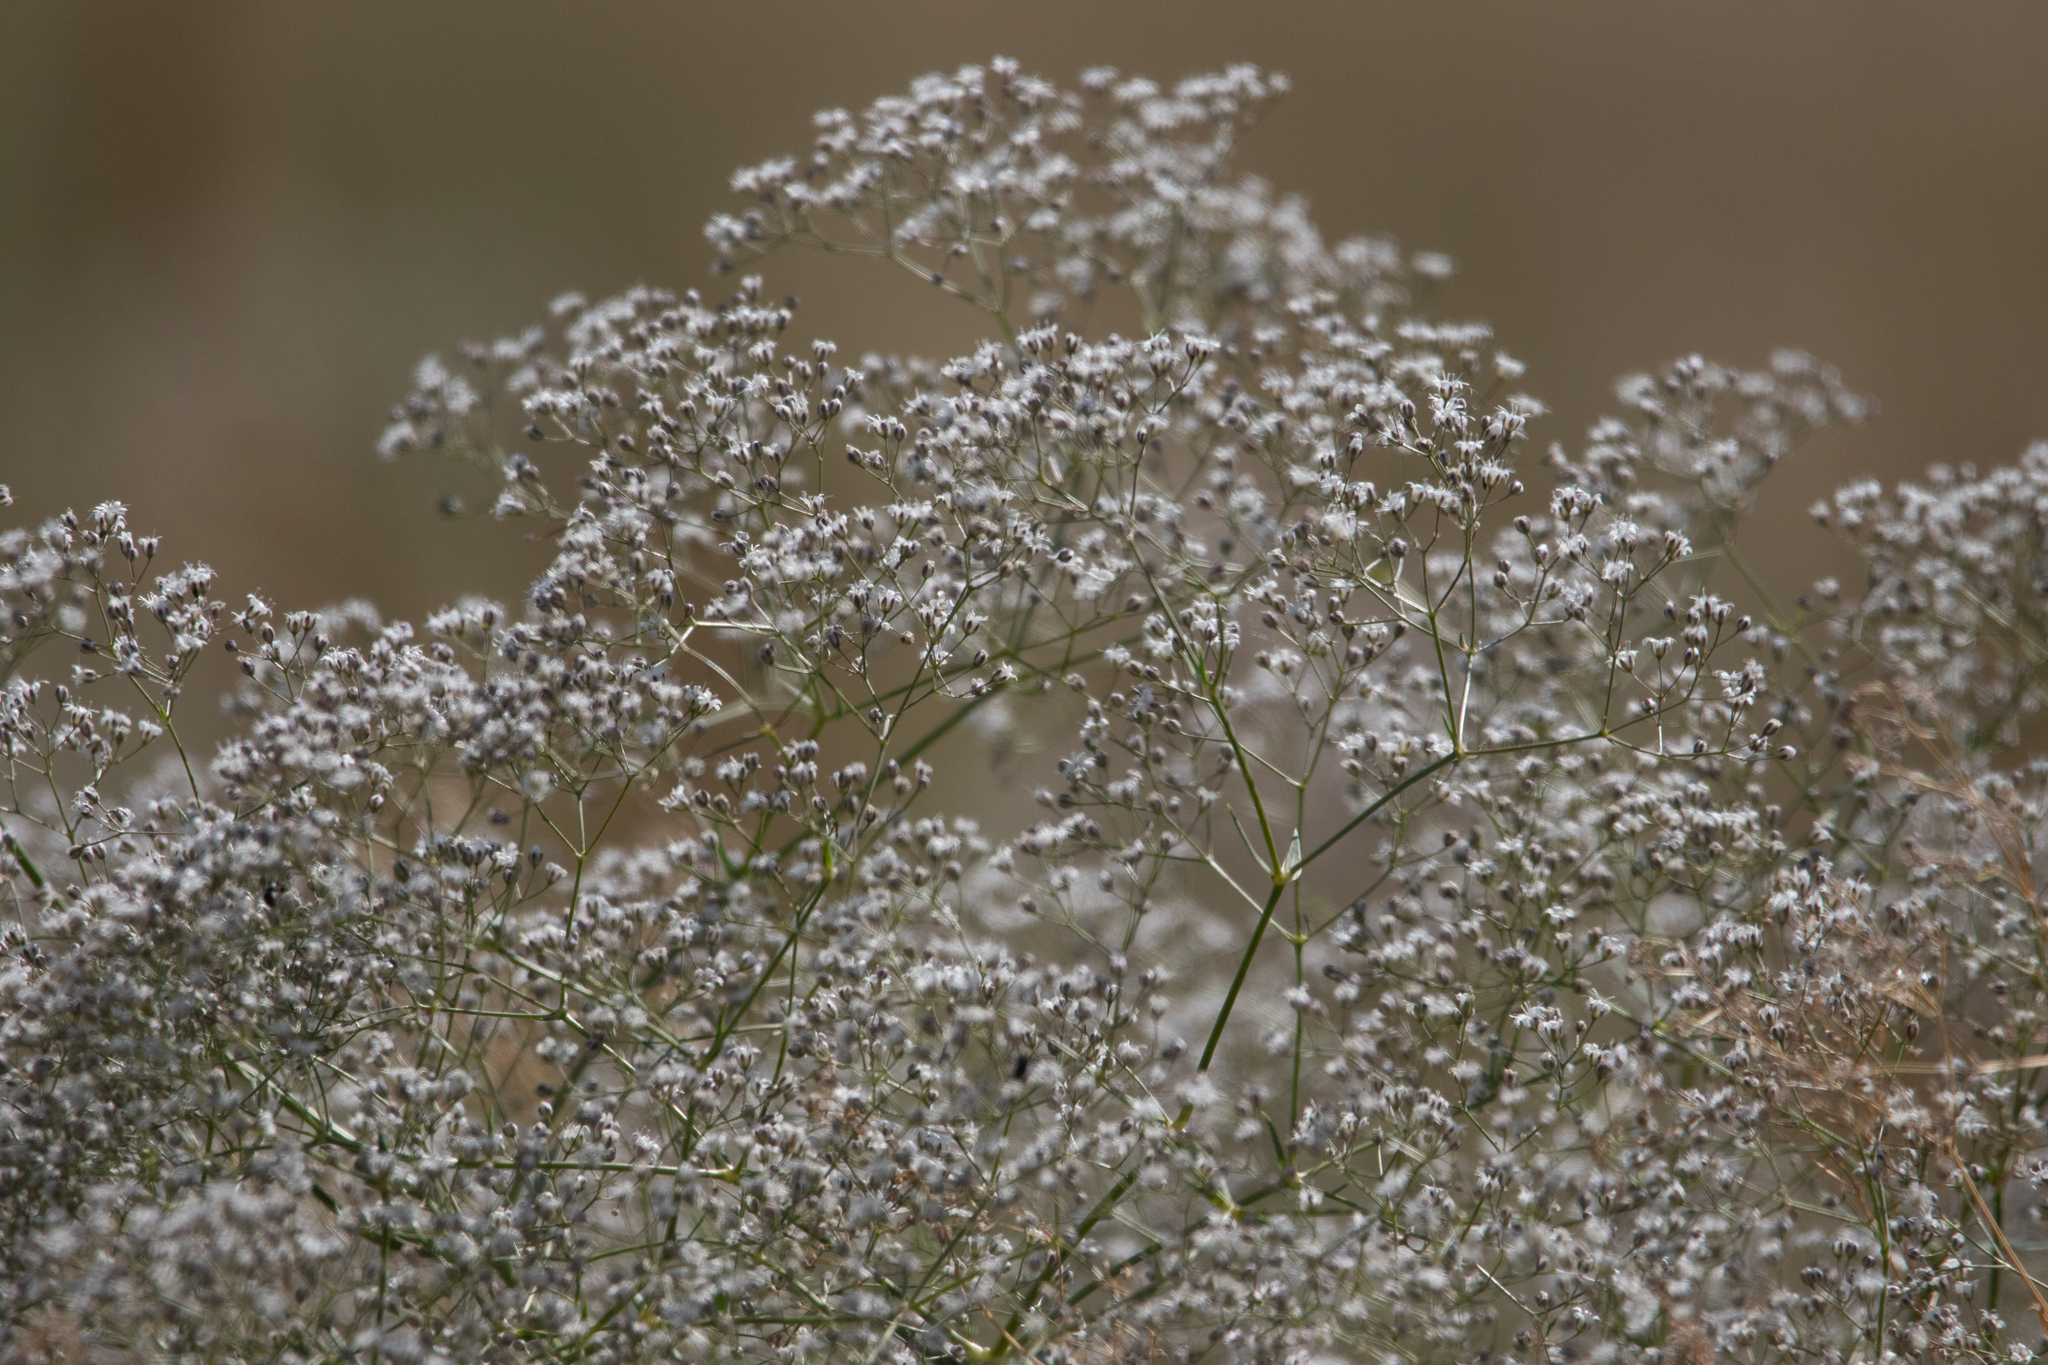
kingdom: Plantae
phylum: Tracheophyta
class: Magnoliopsida
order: Caryophyllales
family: Caryophyllaceae
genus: Gypsophila
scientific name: Gypsophila paniculata
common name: Baby's-breath
